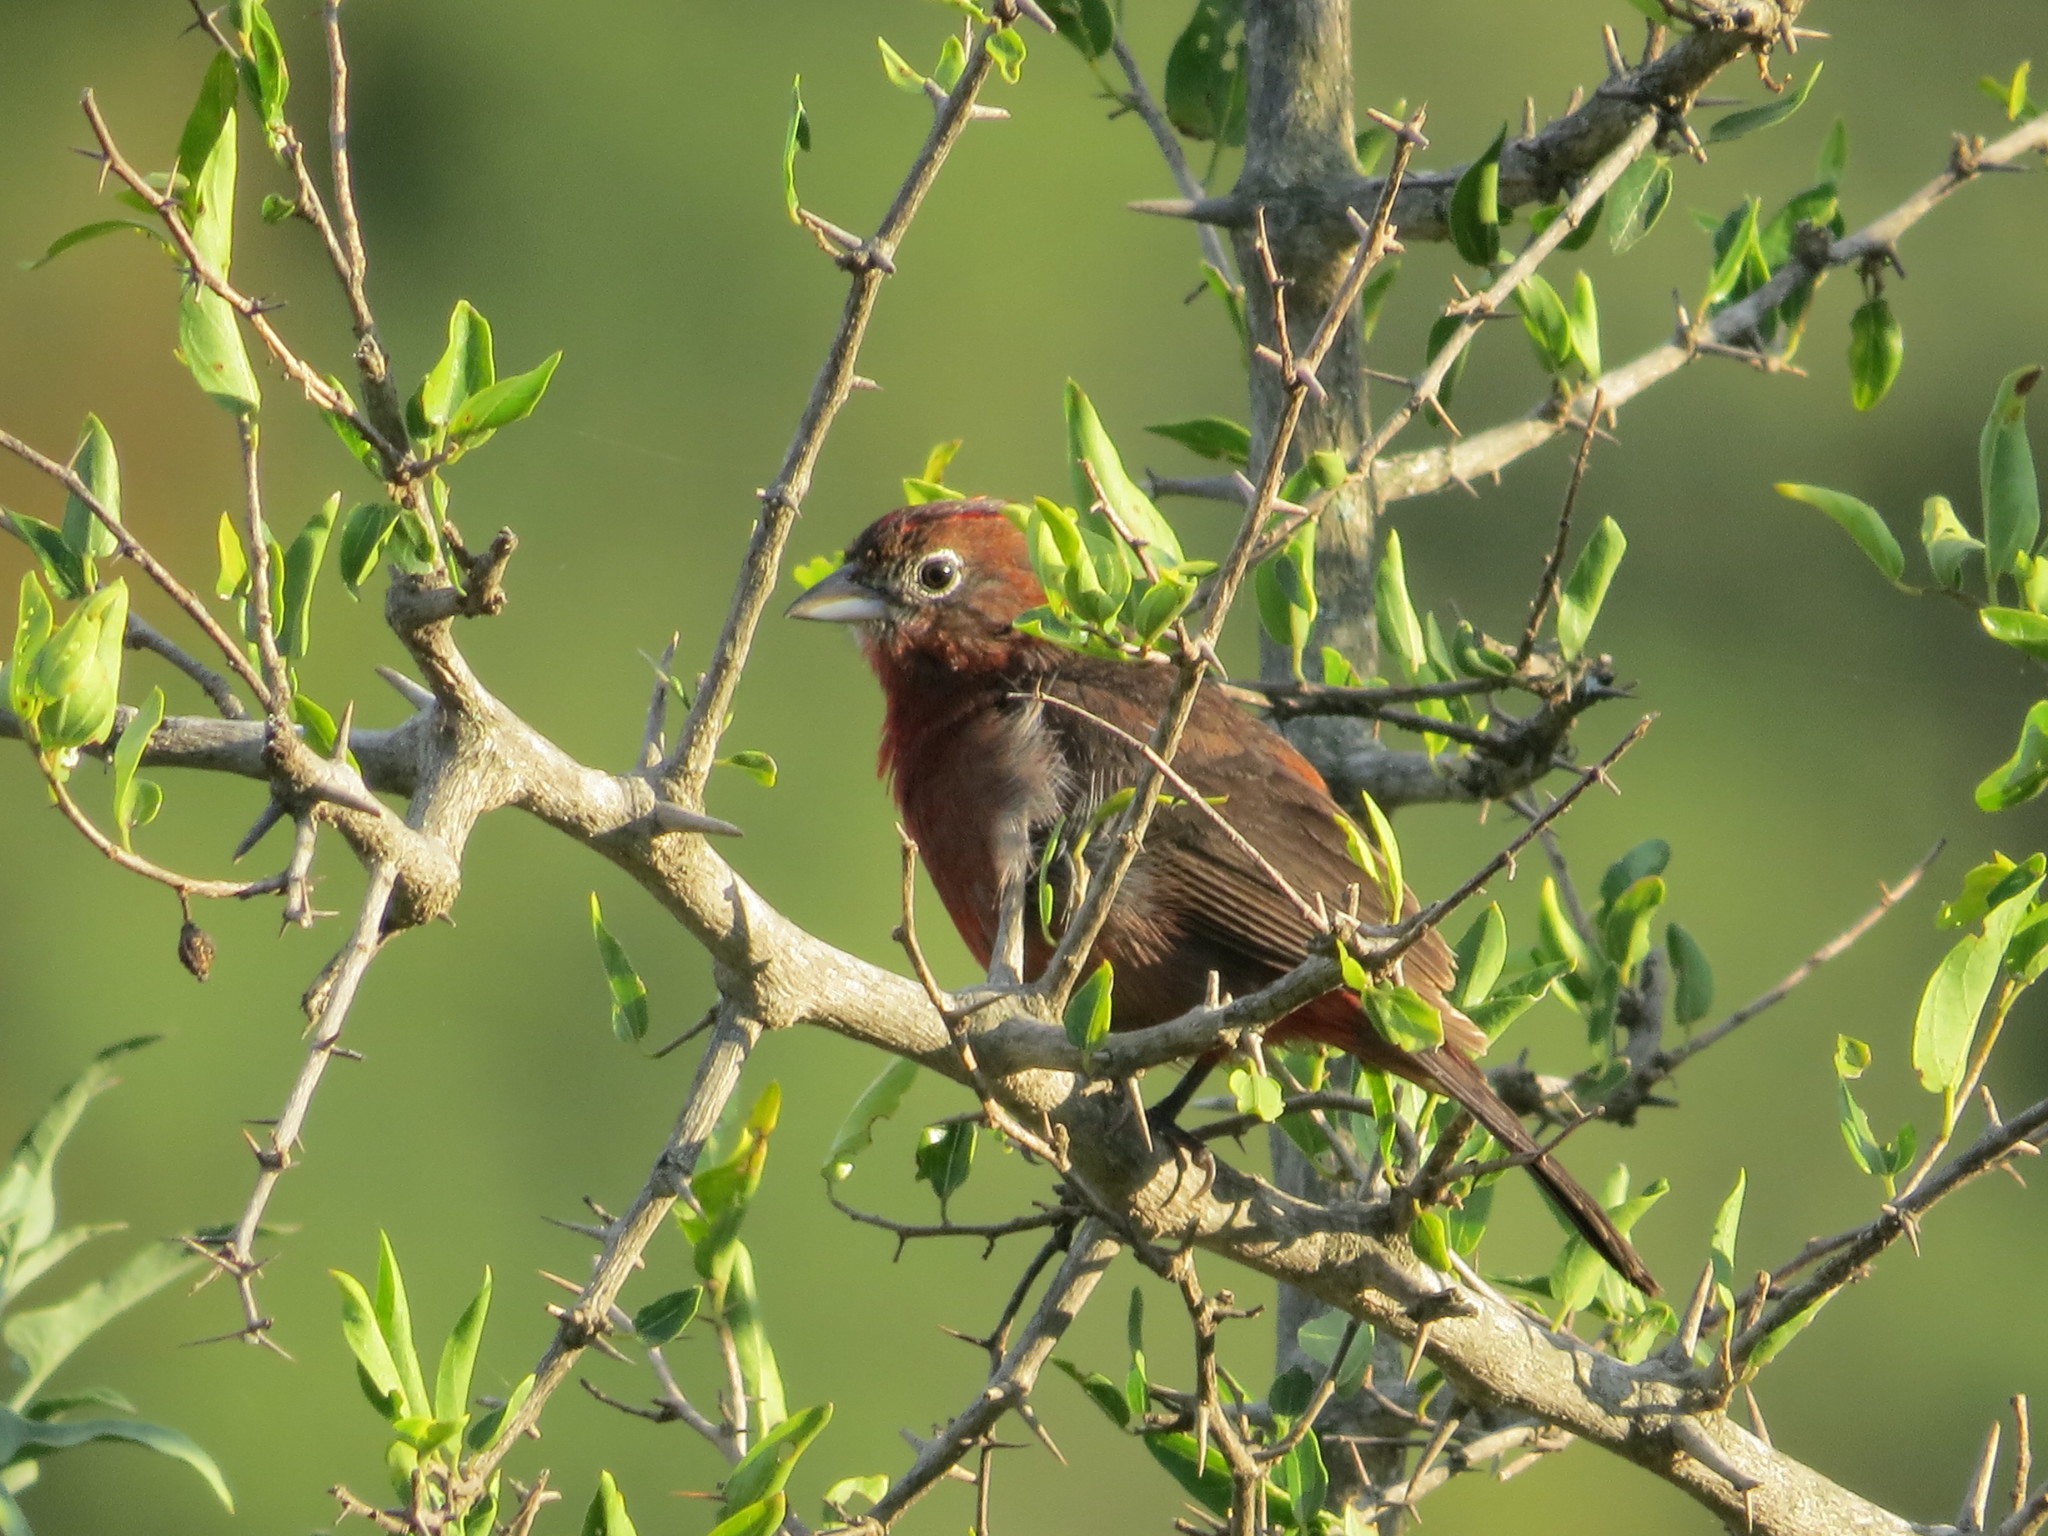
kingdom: Animalia
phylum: Chordata
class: Aves
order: Passeriformes
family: Thraupidae
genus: Coryphospingus
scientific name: Coryphospingus cucullatus
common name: Red pileated finch
